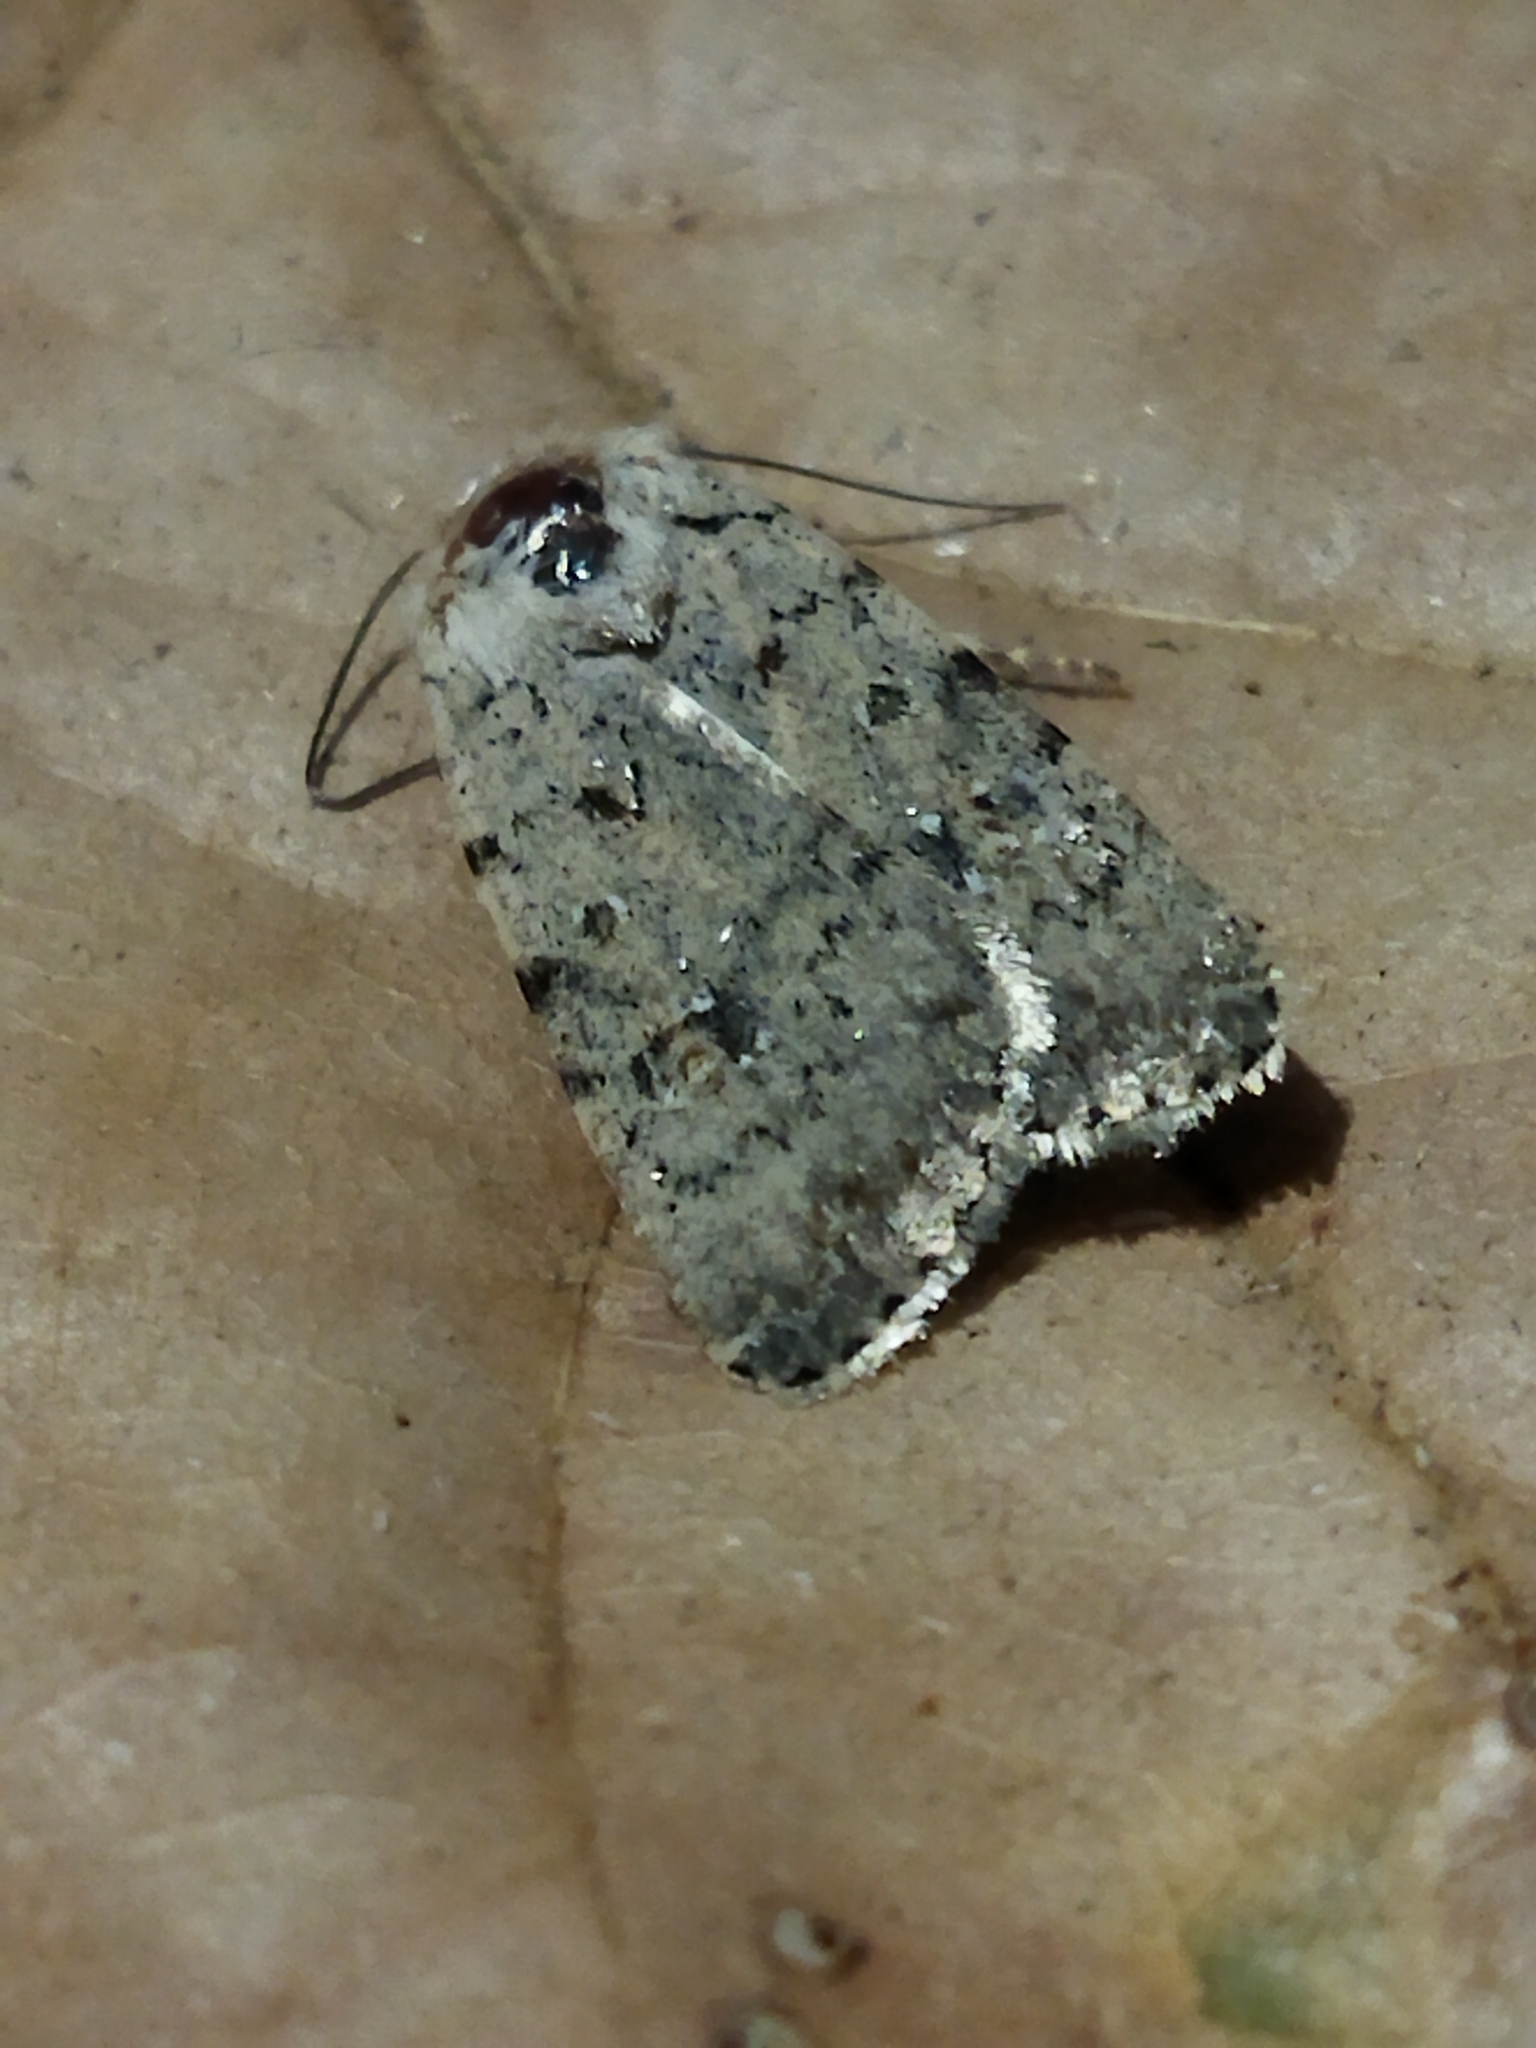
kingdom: Animalia
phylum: Arthropoda
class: Insecta
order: Lepidoptera
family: Noctuidae
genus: Caradrina
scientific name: Caradrina clavipalpis
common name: Pale mottled willow
